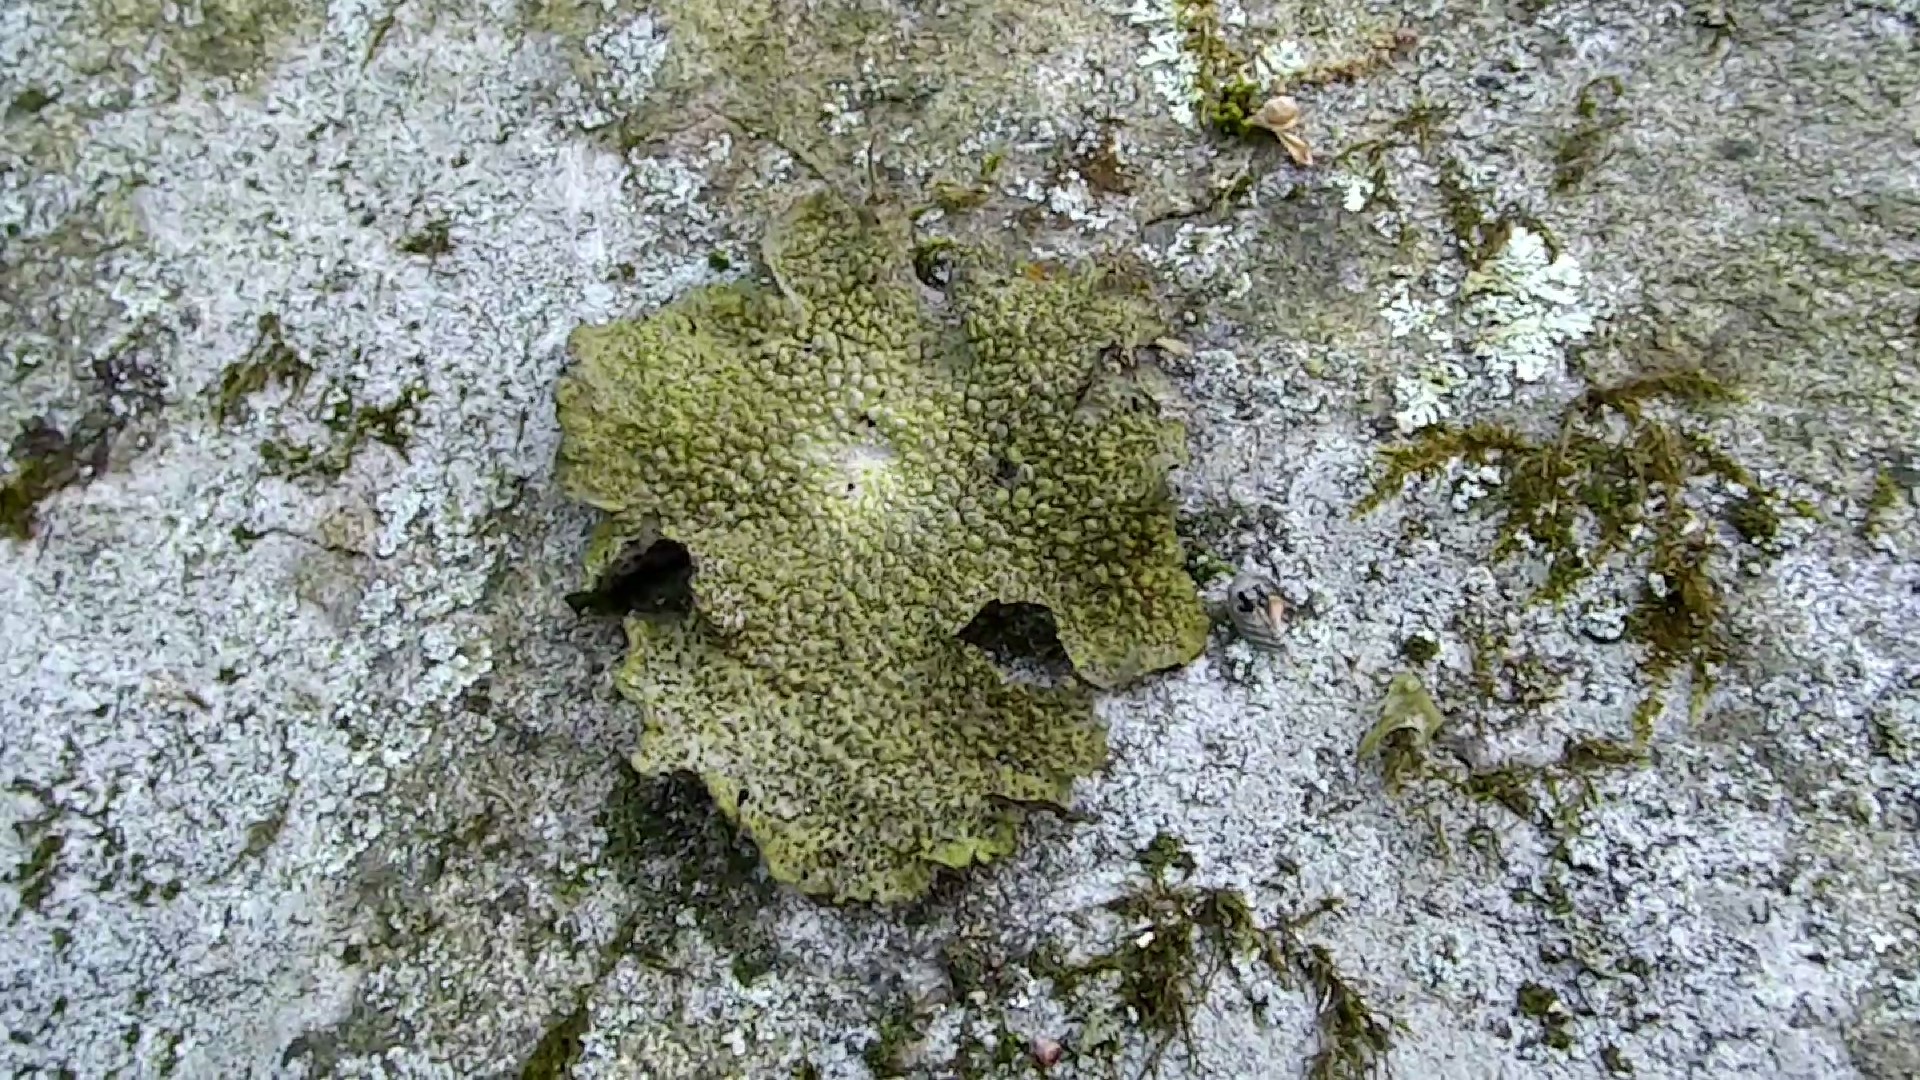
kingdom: Fungi
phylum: Ascomycota
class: Lecanoromycetes
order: Umbilicariales
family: Umbilicariaceae
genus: Lasallia
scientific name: Lasallia papulosa
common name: Common toadskin lichen
